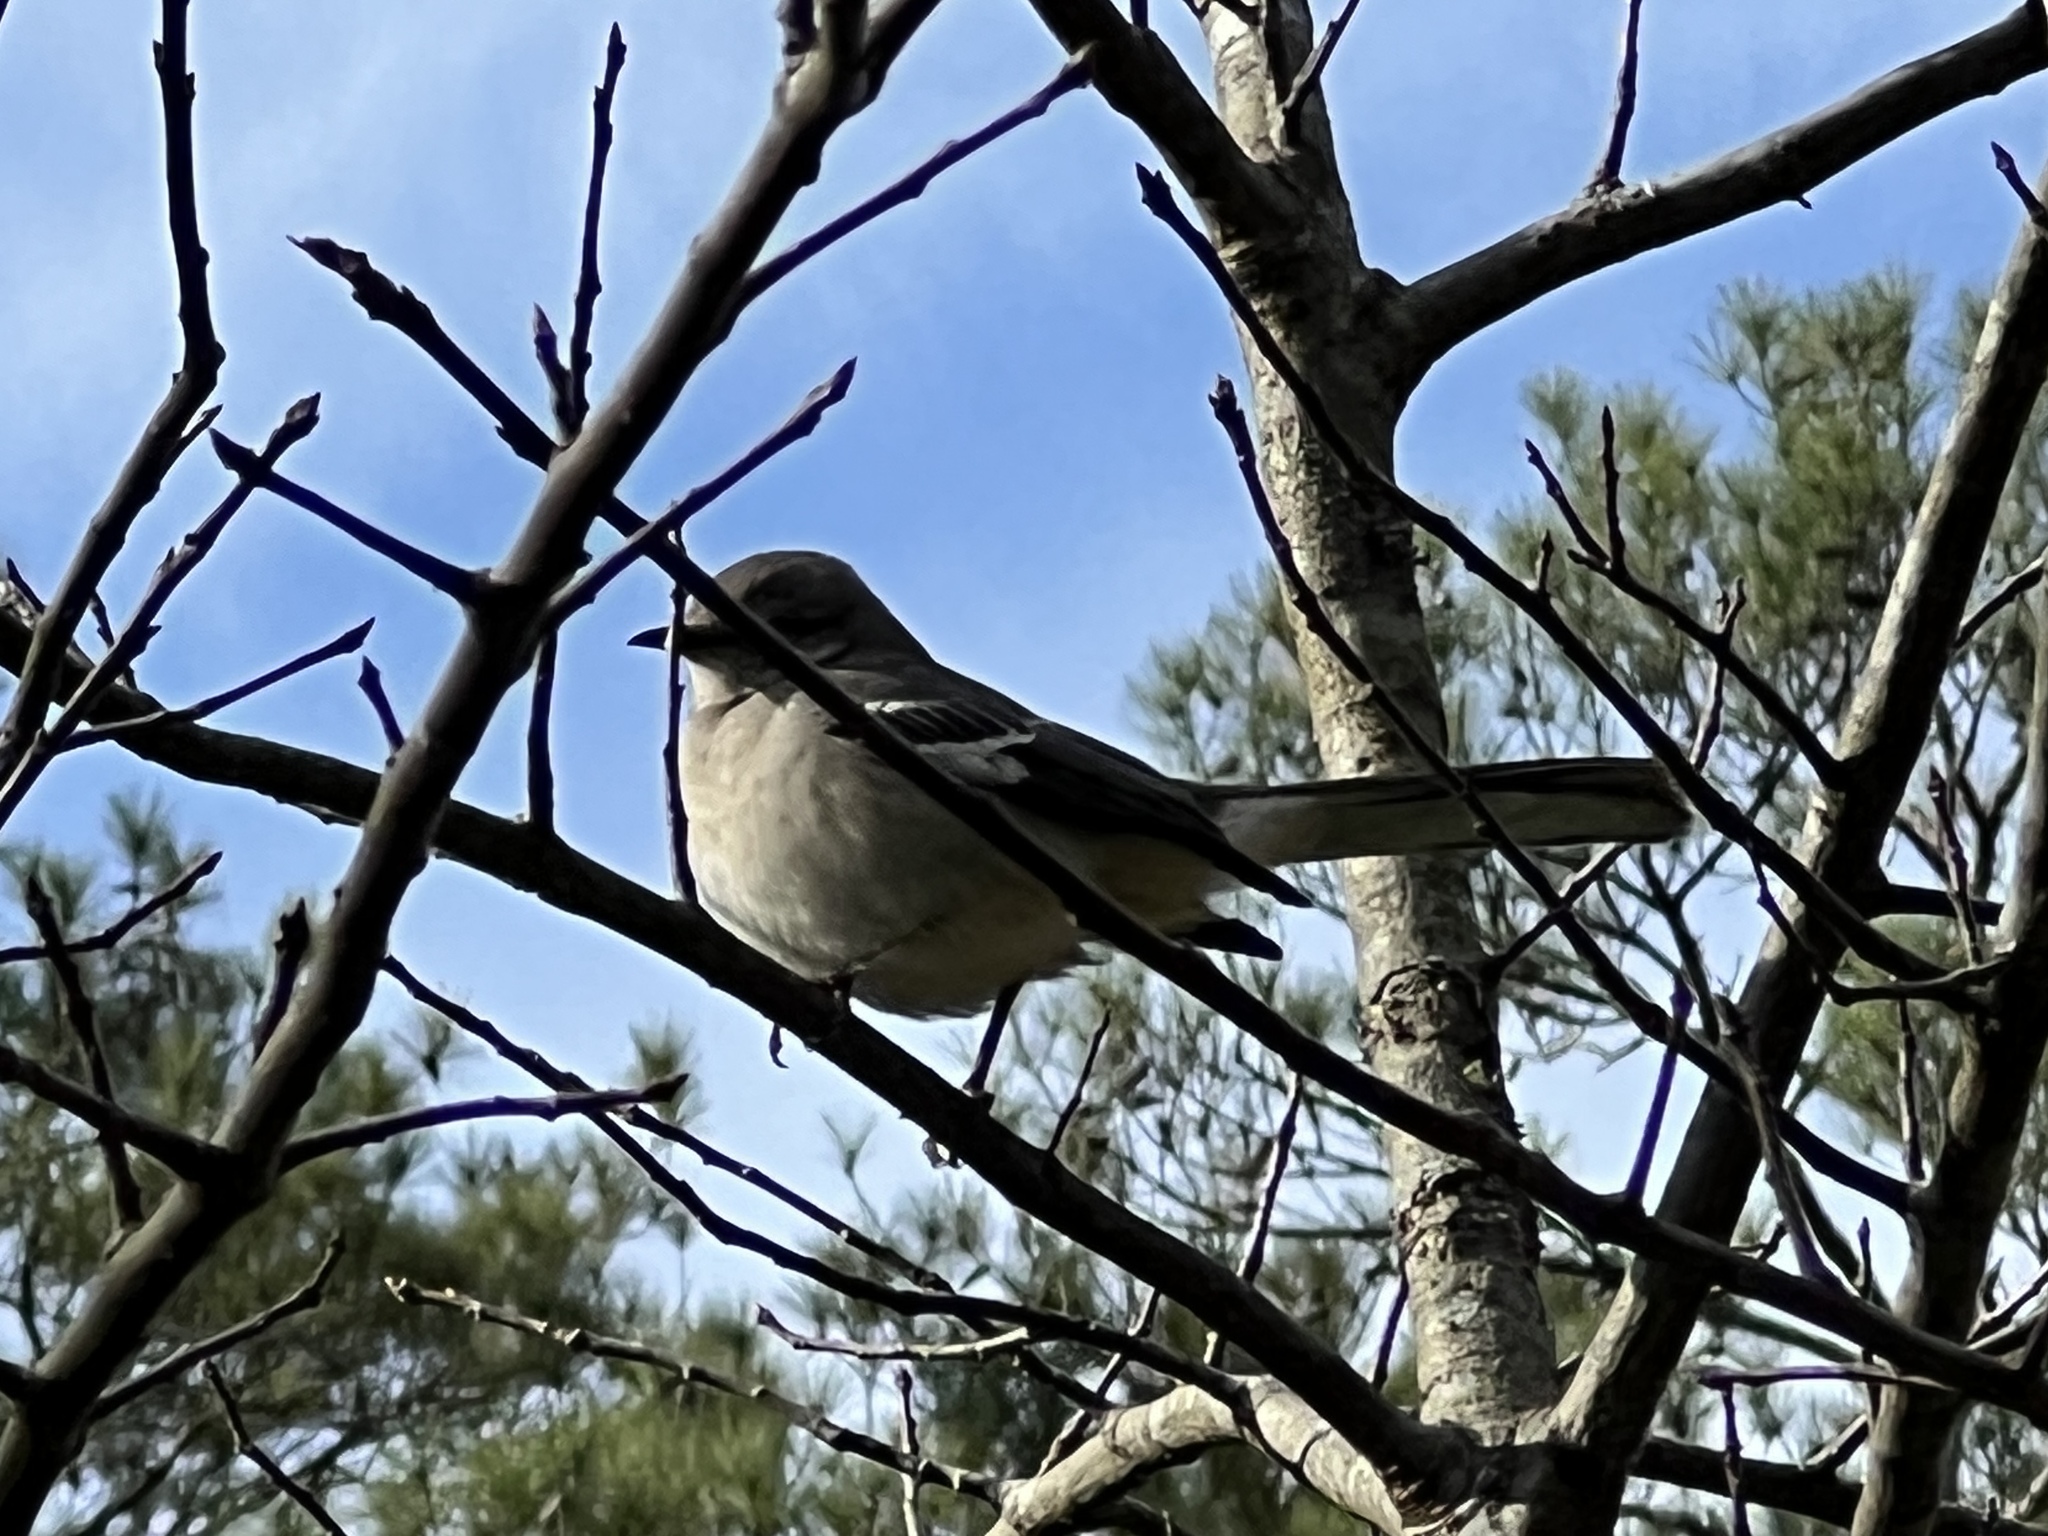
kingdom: Animalia
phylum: Chordata
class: Aves
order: Passeriformes
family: Mimidae
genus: Mimus
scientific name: Mimus polyglottos
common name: Northern mockingbird
